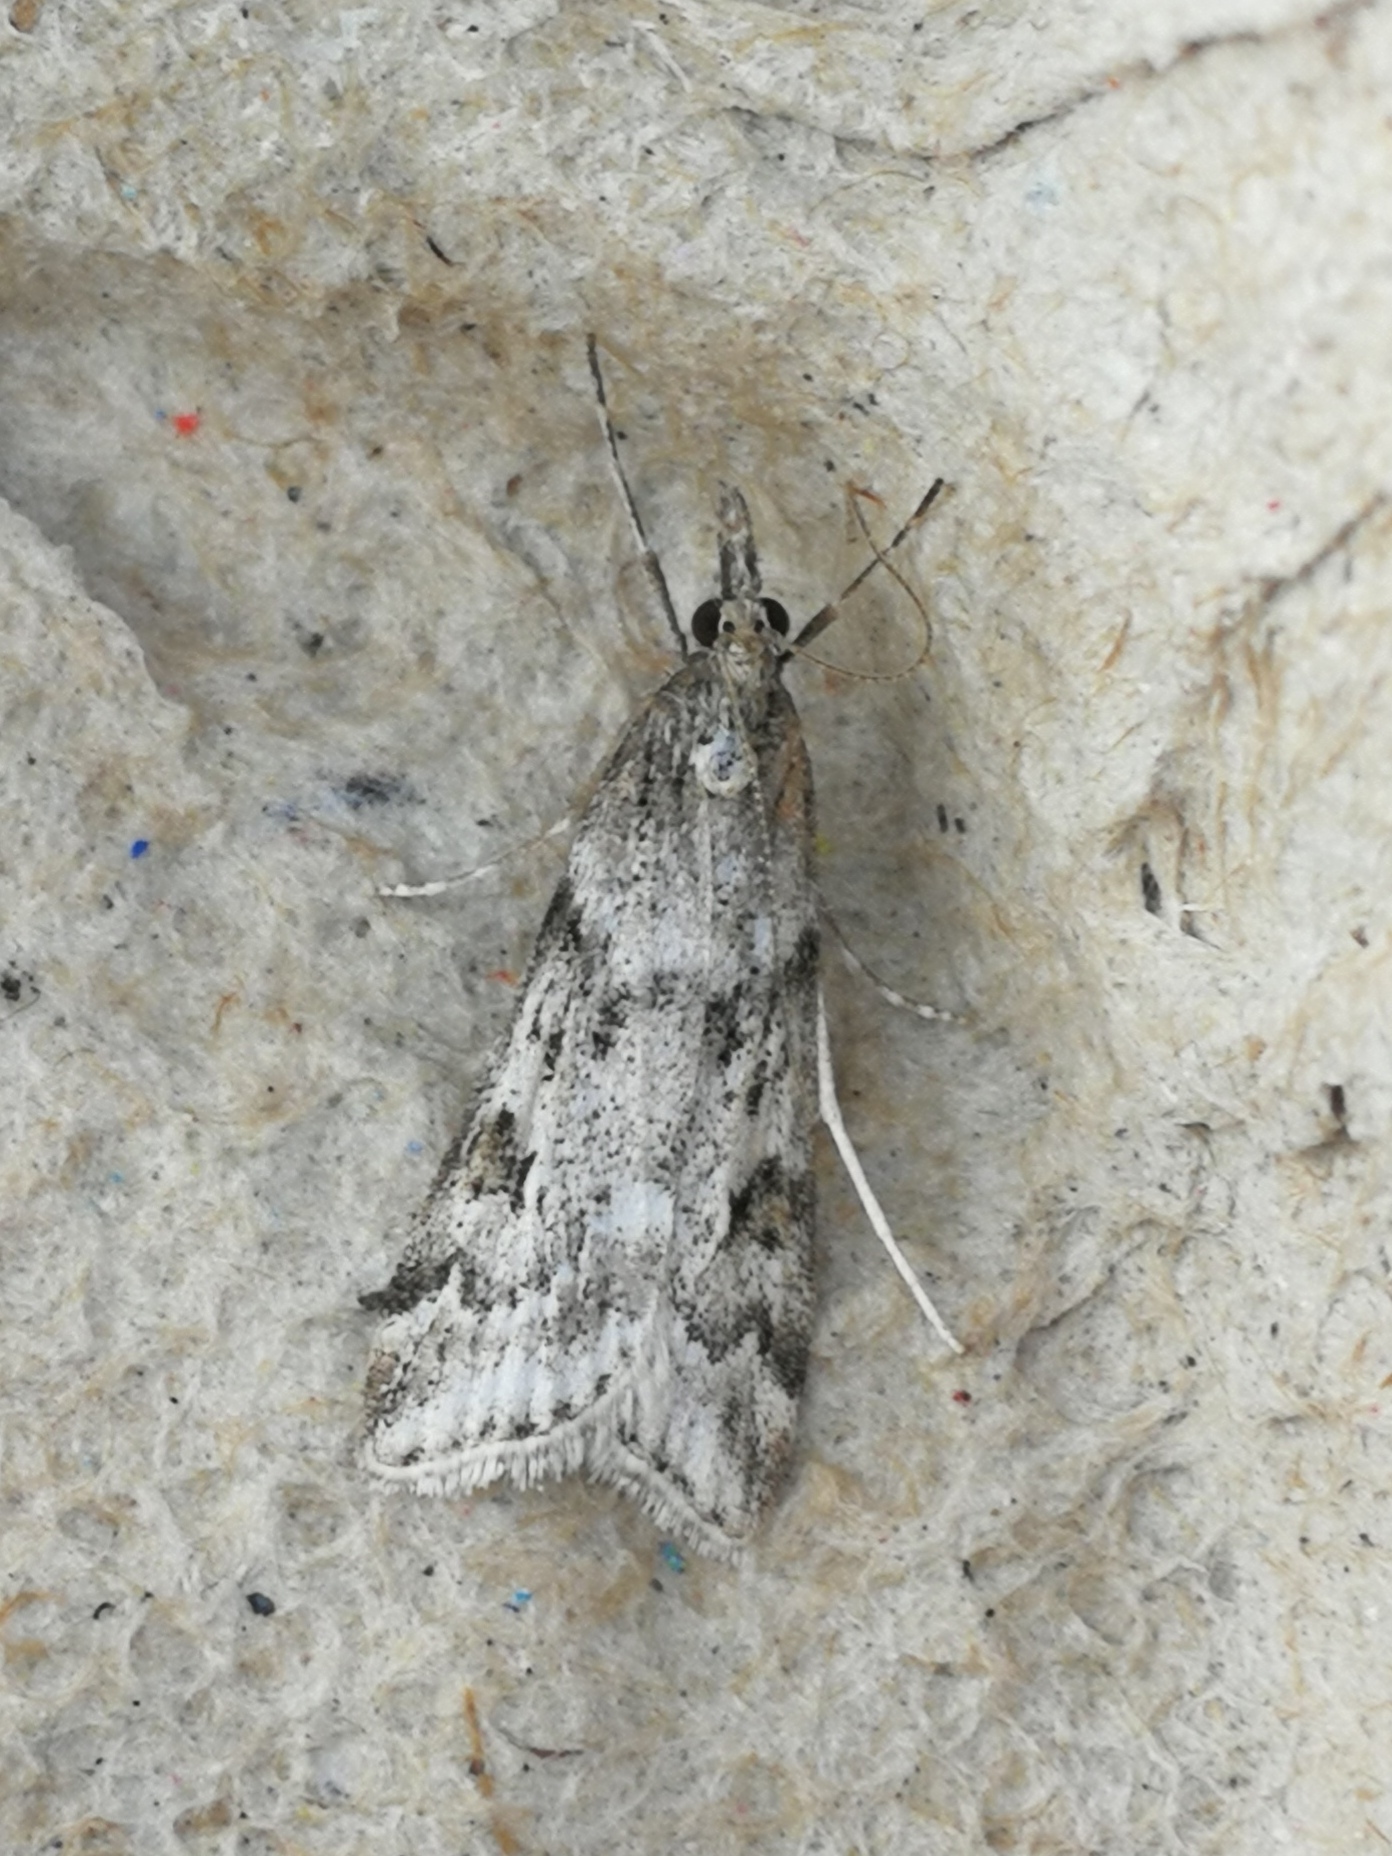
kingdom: Animalia
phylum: Arthropoda
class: Insecta
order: Lepidoptera
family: Crambidae
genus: Eudonia
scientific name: Eudonia angustea
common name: Narrow-winged grey
